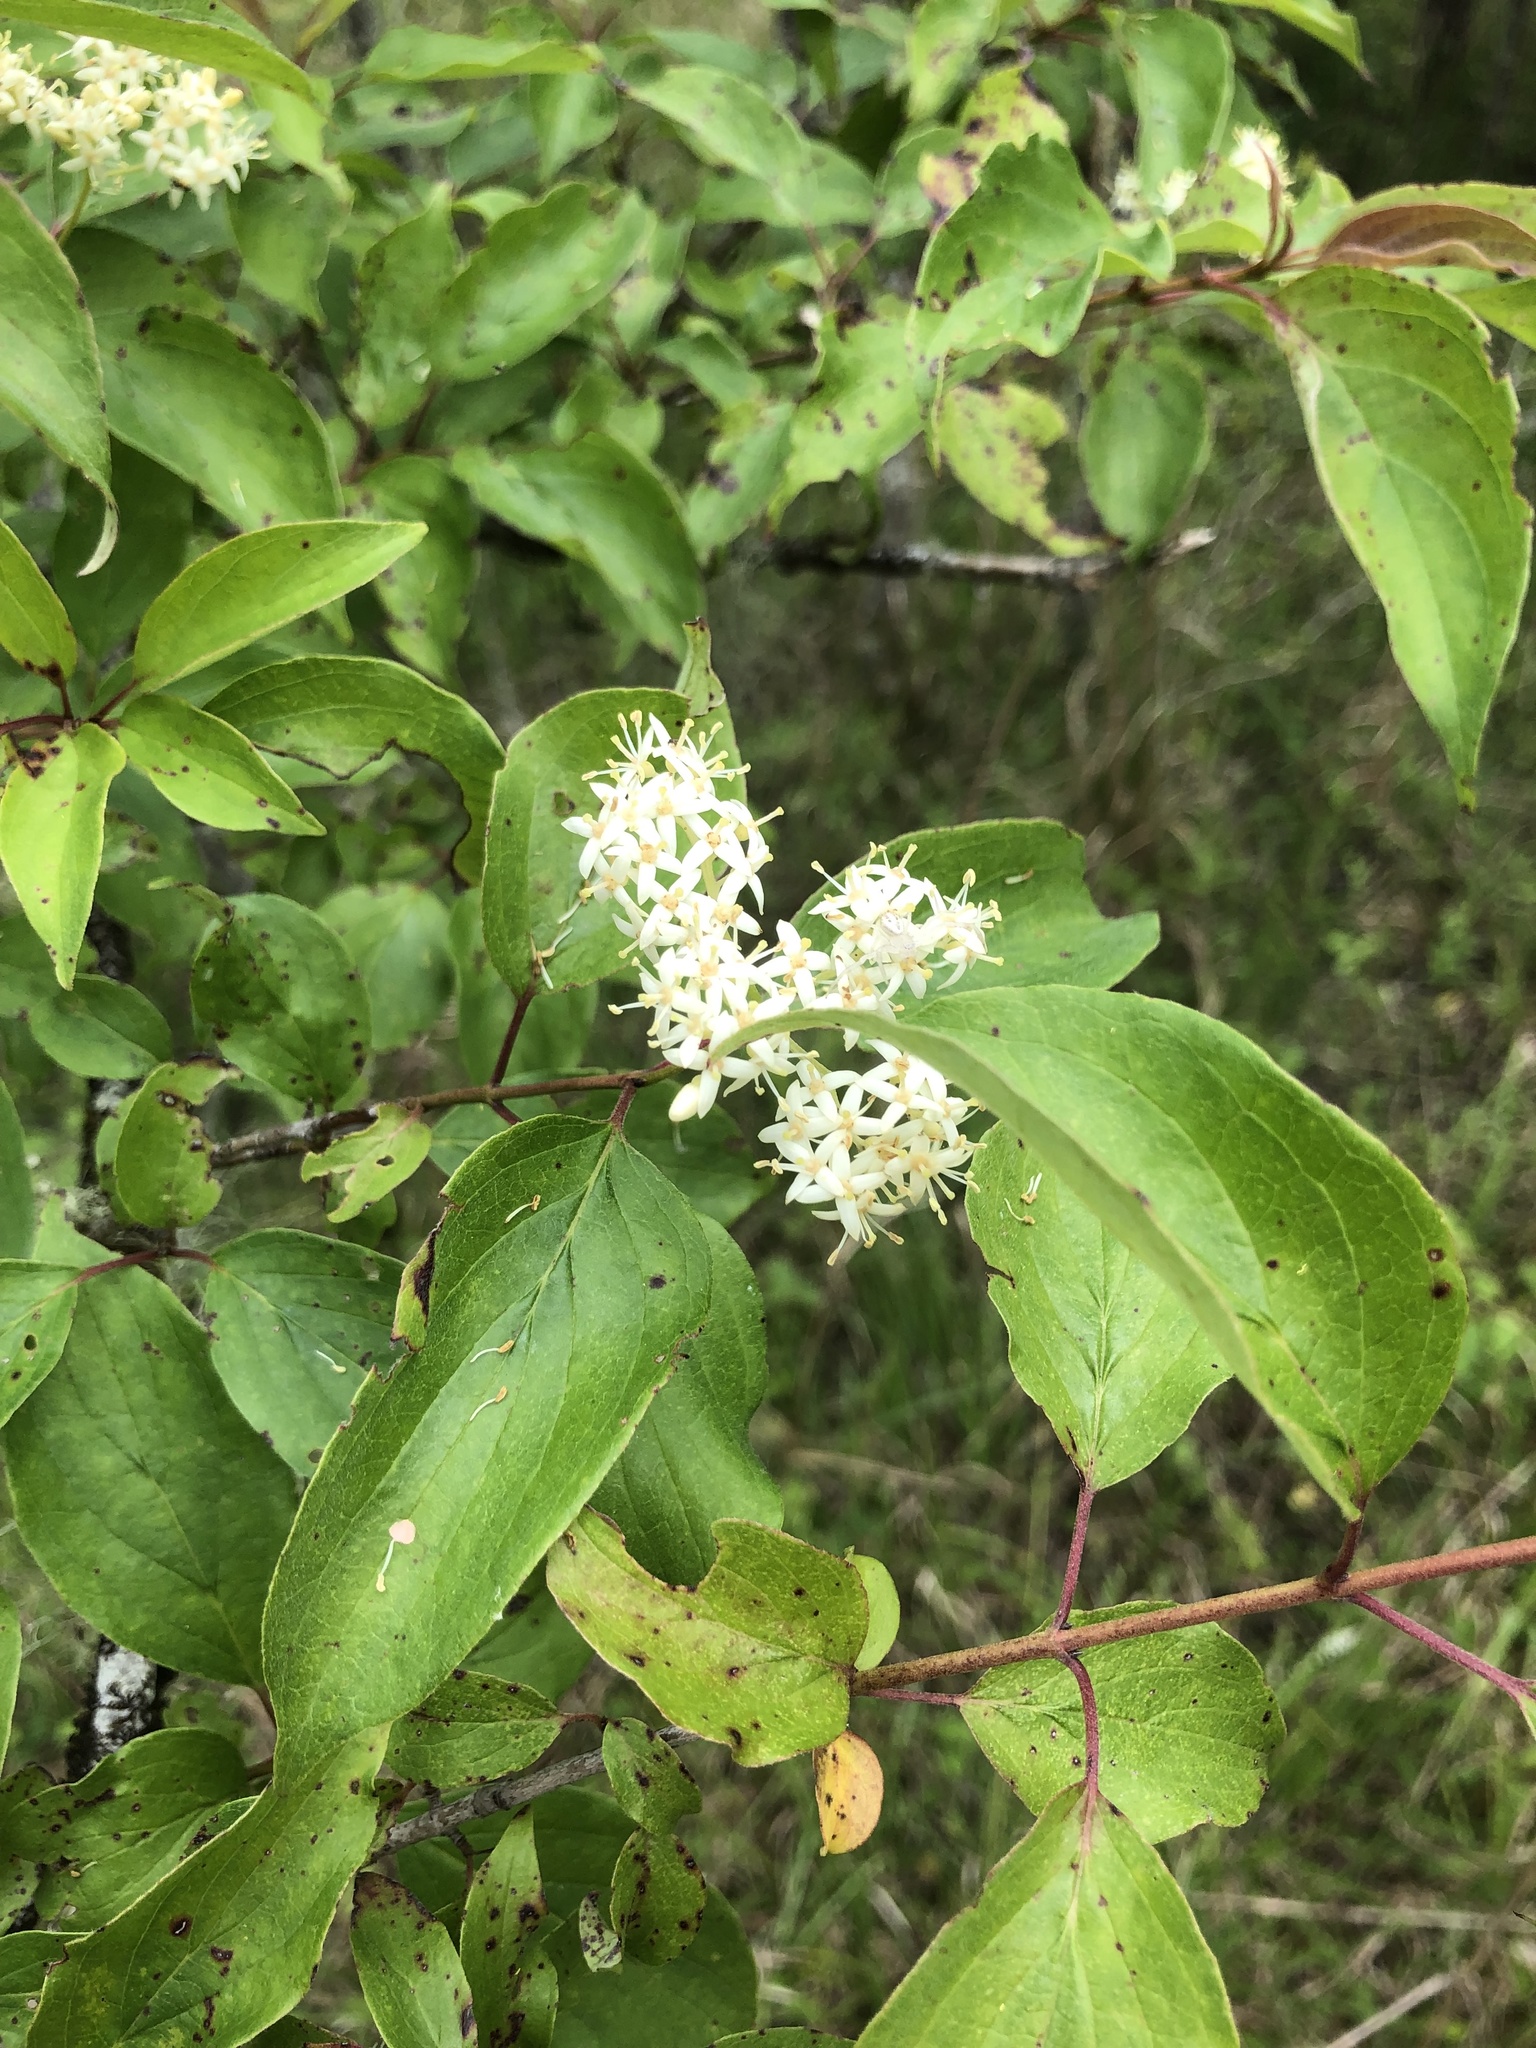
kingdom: Plantae
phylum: Tracheophyta
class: Magnoliopsida
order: Cornales
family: Cornaceae
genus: Cornus
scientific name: Cornus drummondii
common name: Rough-leaf dogwood
